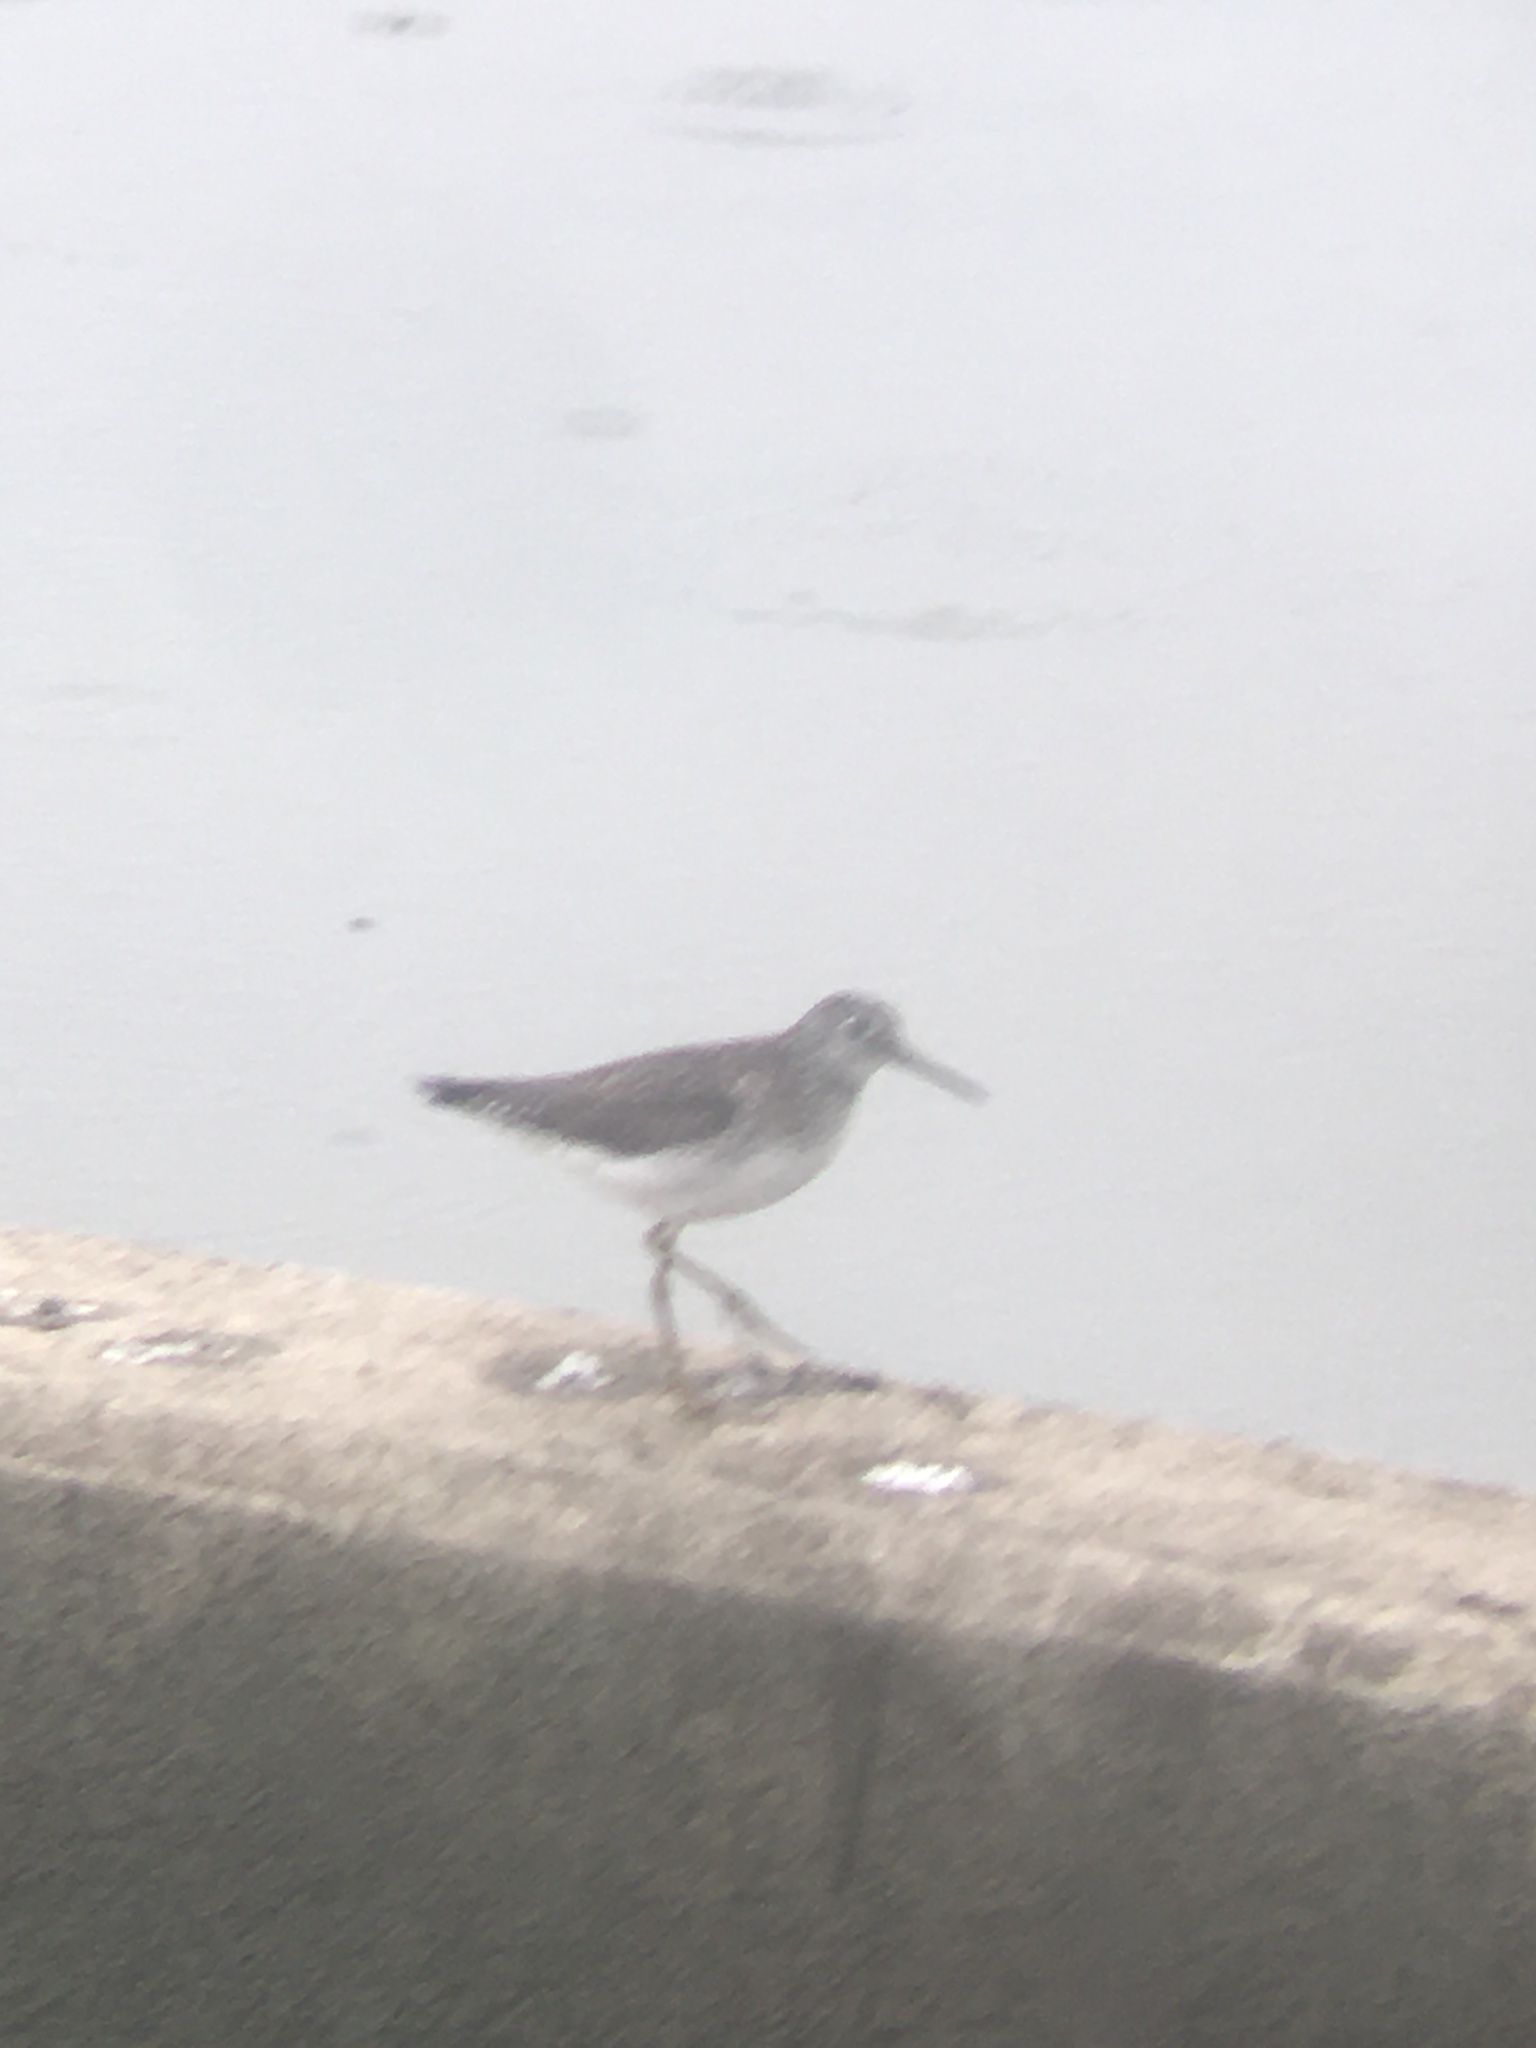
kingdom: Animalia
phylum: Chordata
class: Aves
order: Charadriiformes
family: Scolopacidae
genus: Tringa
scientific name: Tringa solitaria
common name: Solitary sandpiper
